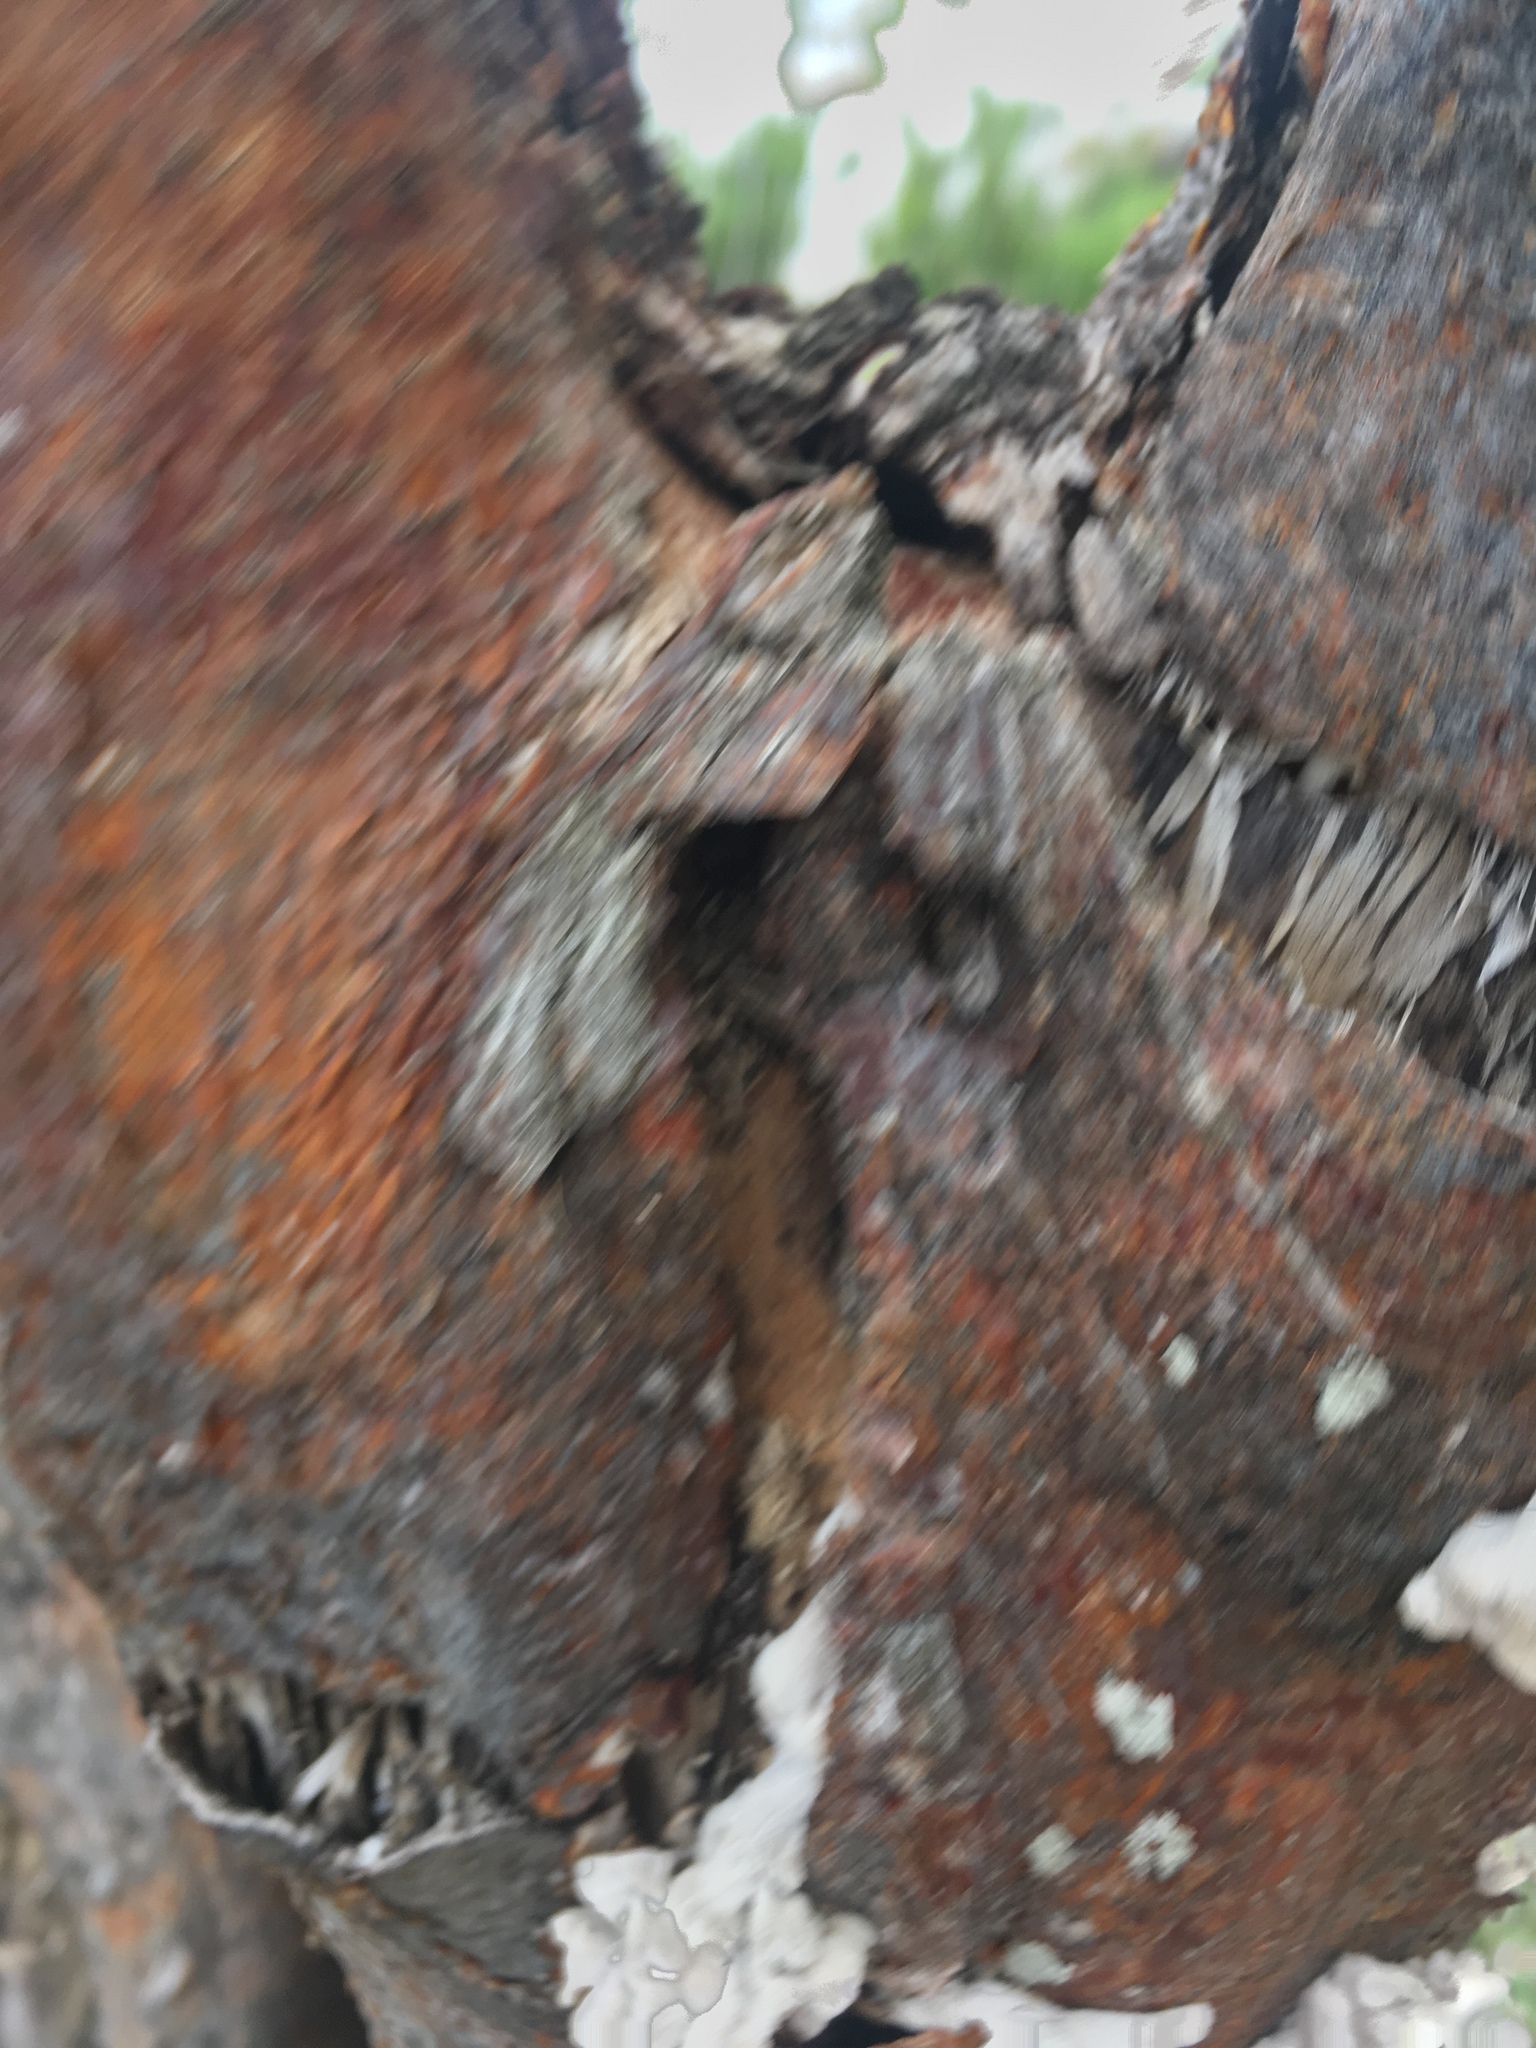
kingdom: Plantae
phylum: Tracheophyta
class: Magnoliopsida
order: Sapindales
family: Burseraceae
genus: Bursera
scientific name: Bursera simaruba
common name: Turpentine tree
